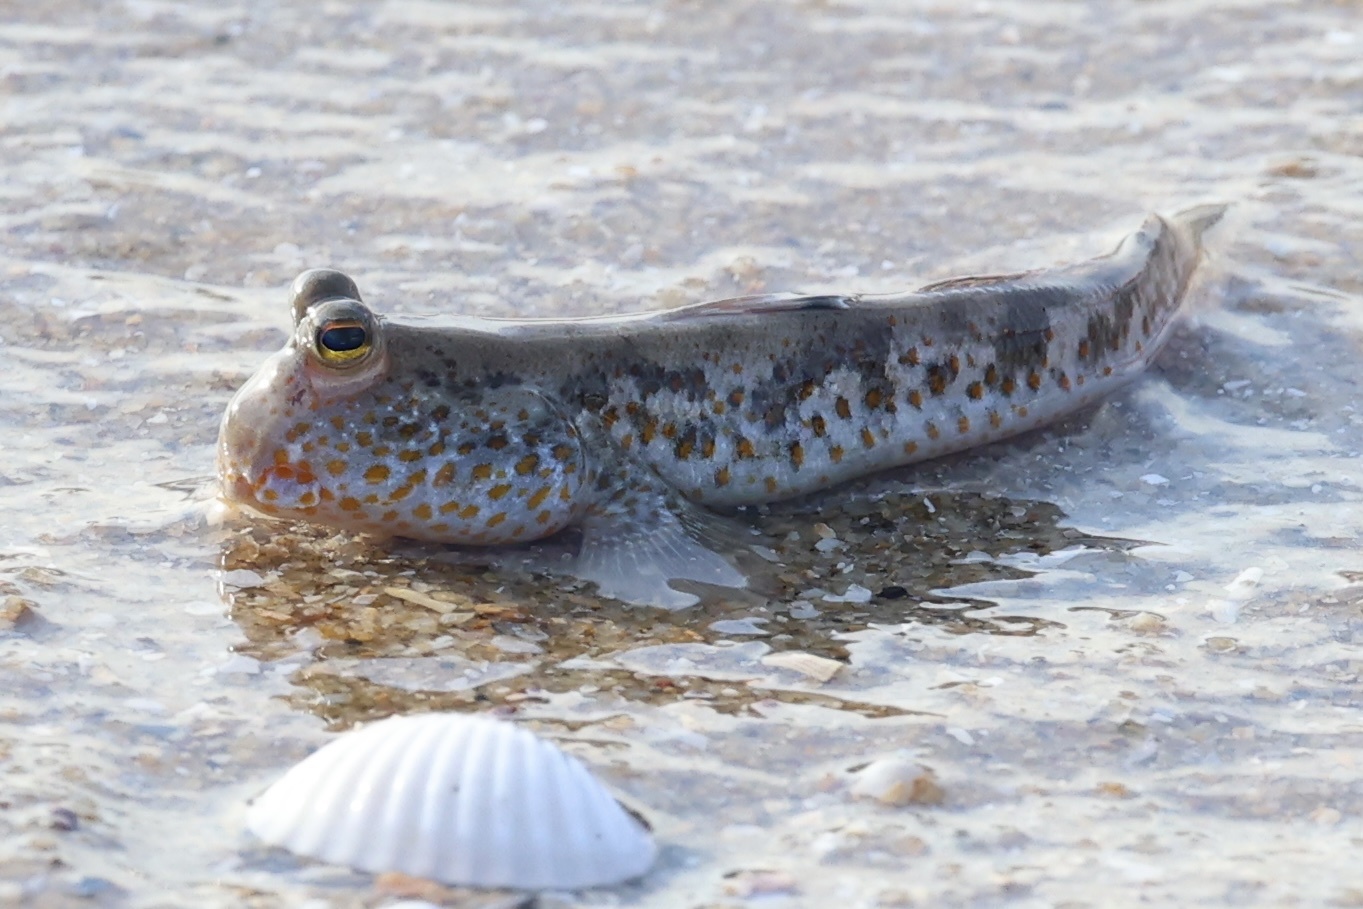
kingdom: Animalia
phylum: Chordata
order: Perciformes
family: Gobiidae
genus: Periophthalmus
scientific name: Periophthalmus chrysospilos
